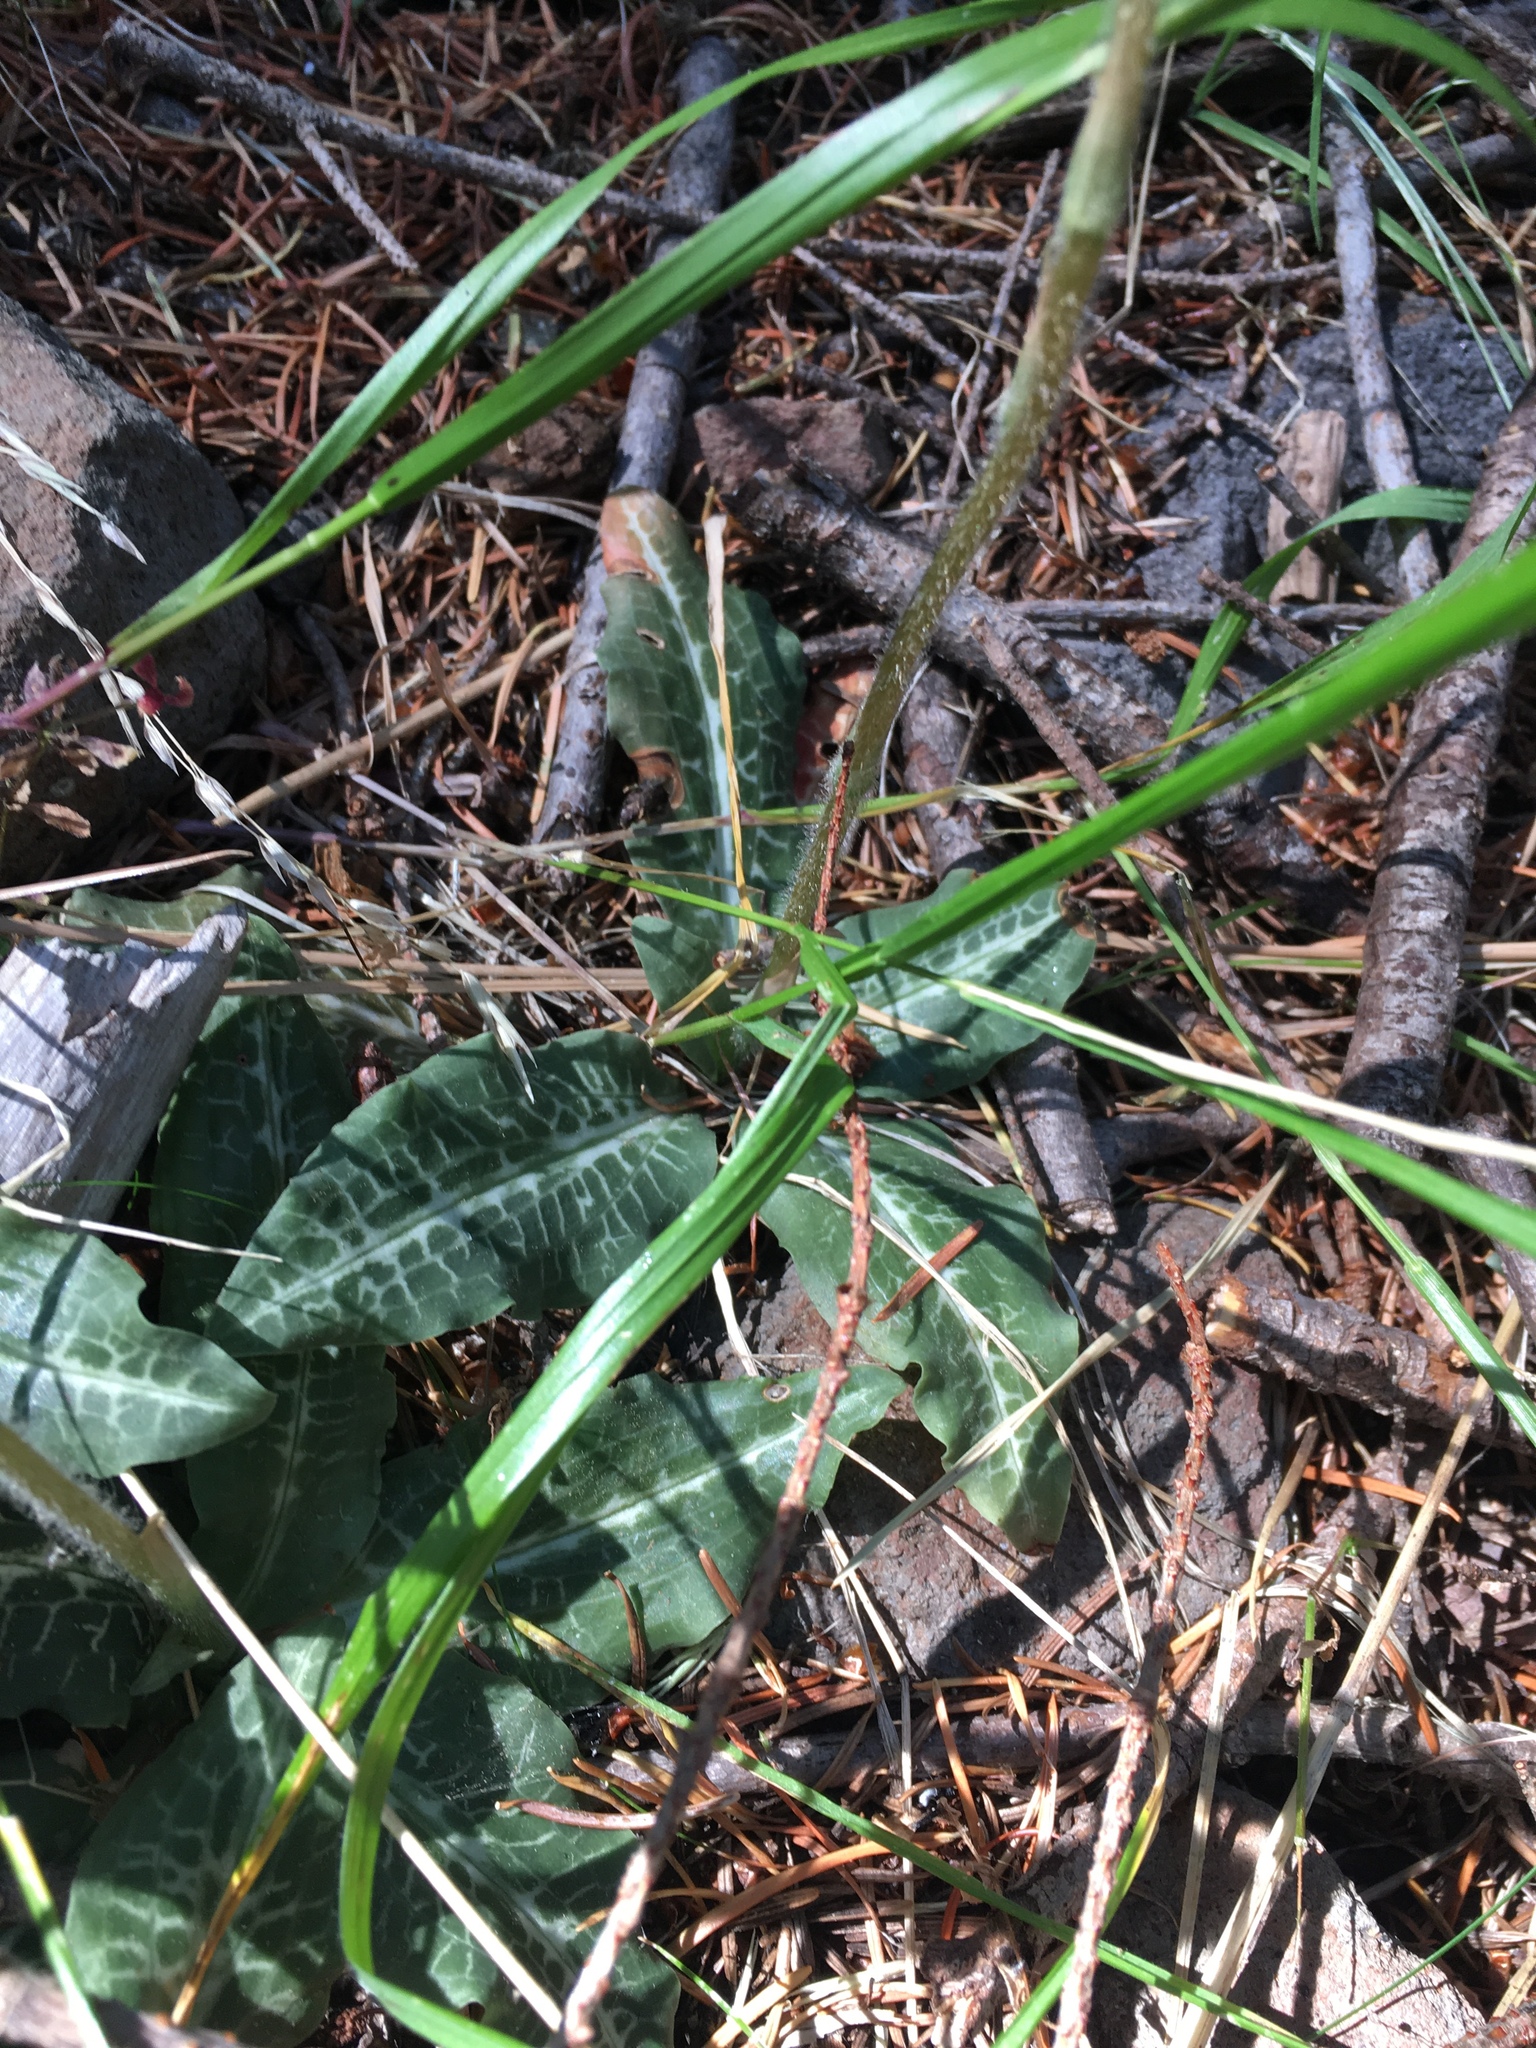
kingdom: Plantae
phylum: Tracheophyta
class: Liliopsida
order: Asparagales
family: Orchidaceae
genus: Goodyera
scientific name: Goodyera oblongifolia
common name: Giant rattlesnake-plantain
